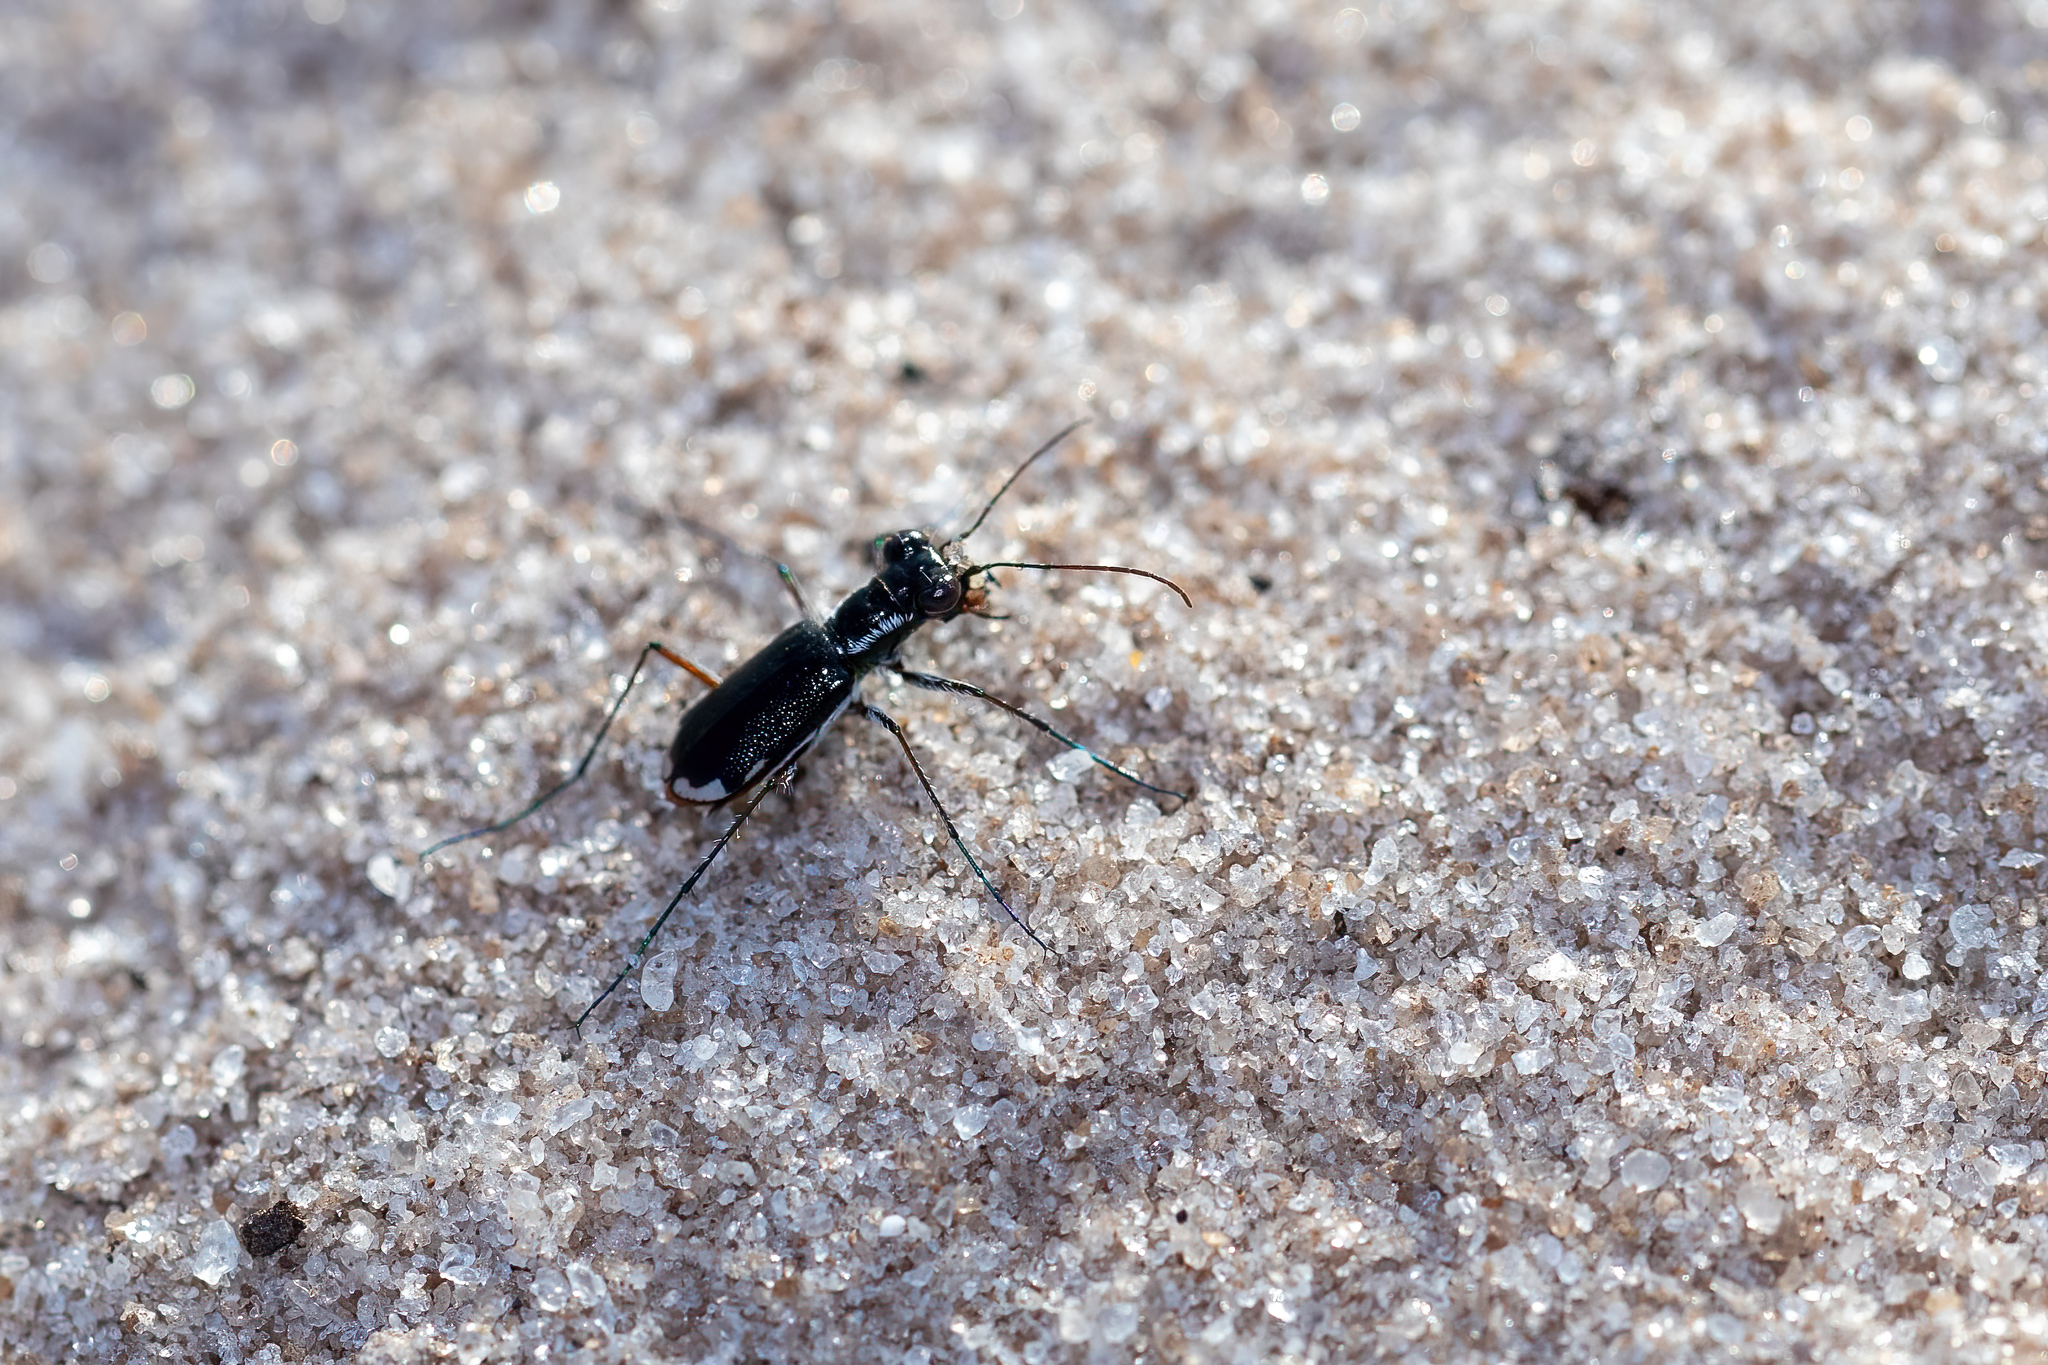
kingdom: Animalia
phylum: Arthropoda
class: Insecta
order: Coleoptera
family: Carabidae
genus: Cicindela
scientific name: Cicindela scabrosa
